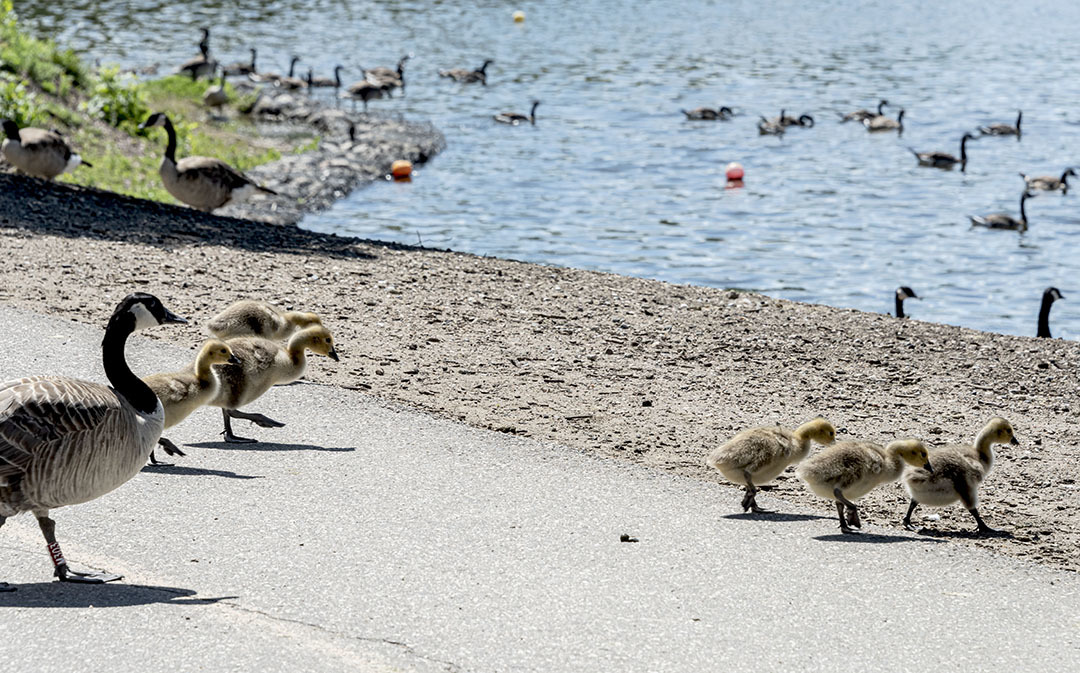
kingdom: Animalia
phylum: Chordata
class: Aves
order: Anseriformes
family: Anatidae
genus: Branta
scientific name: Branta canadensis
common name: Canada goose
